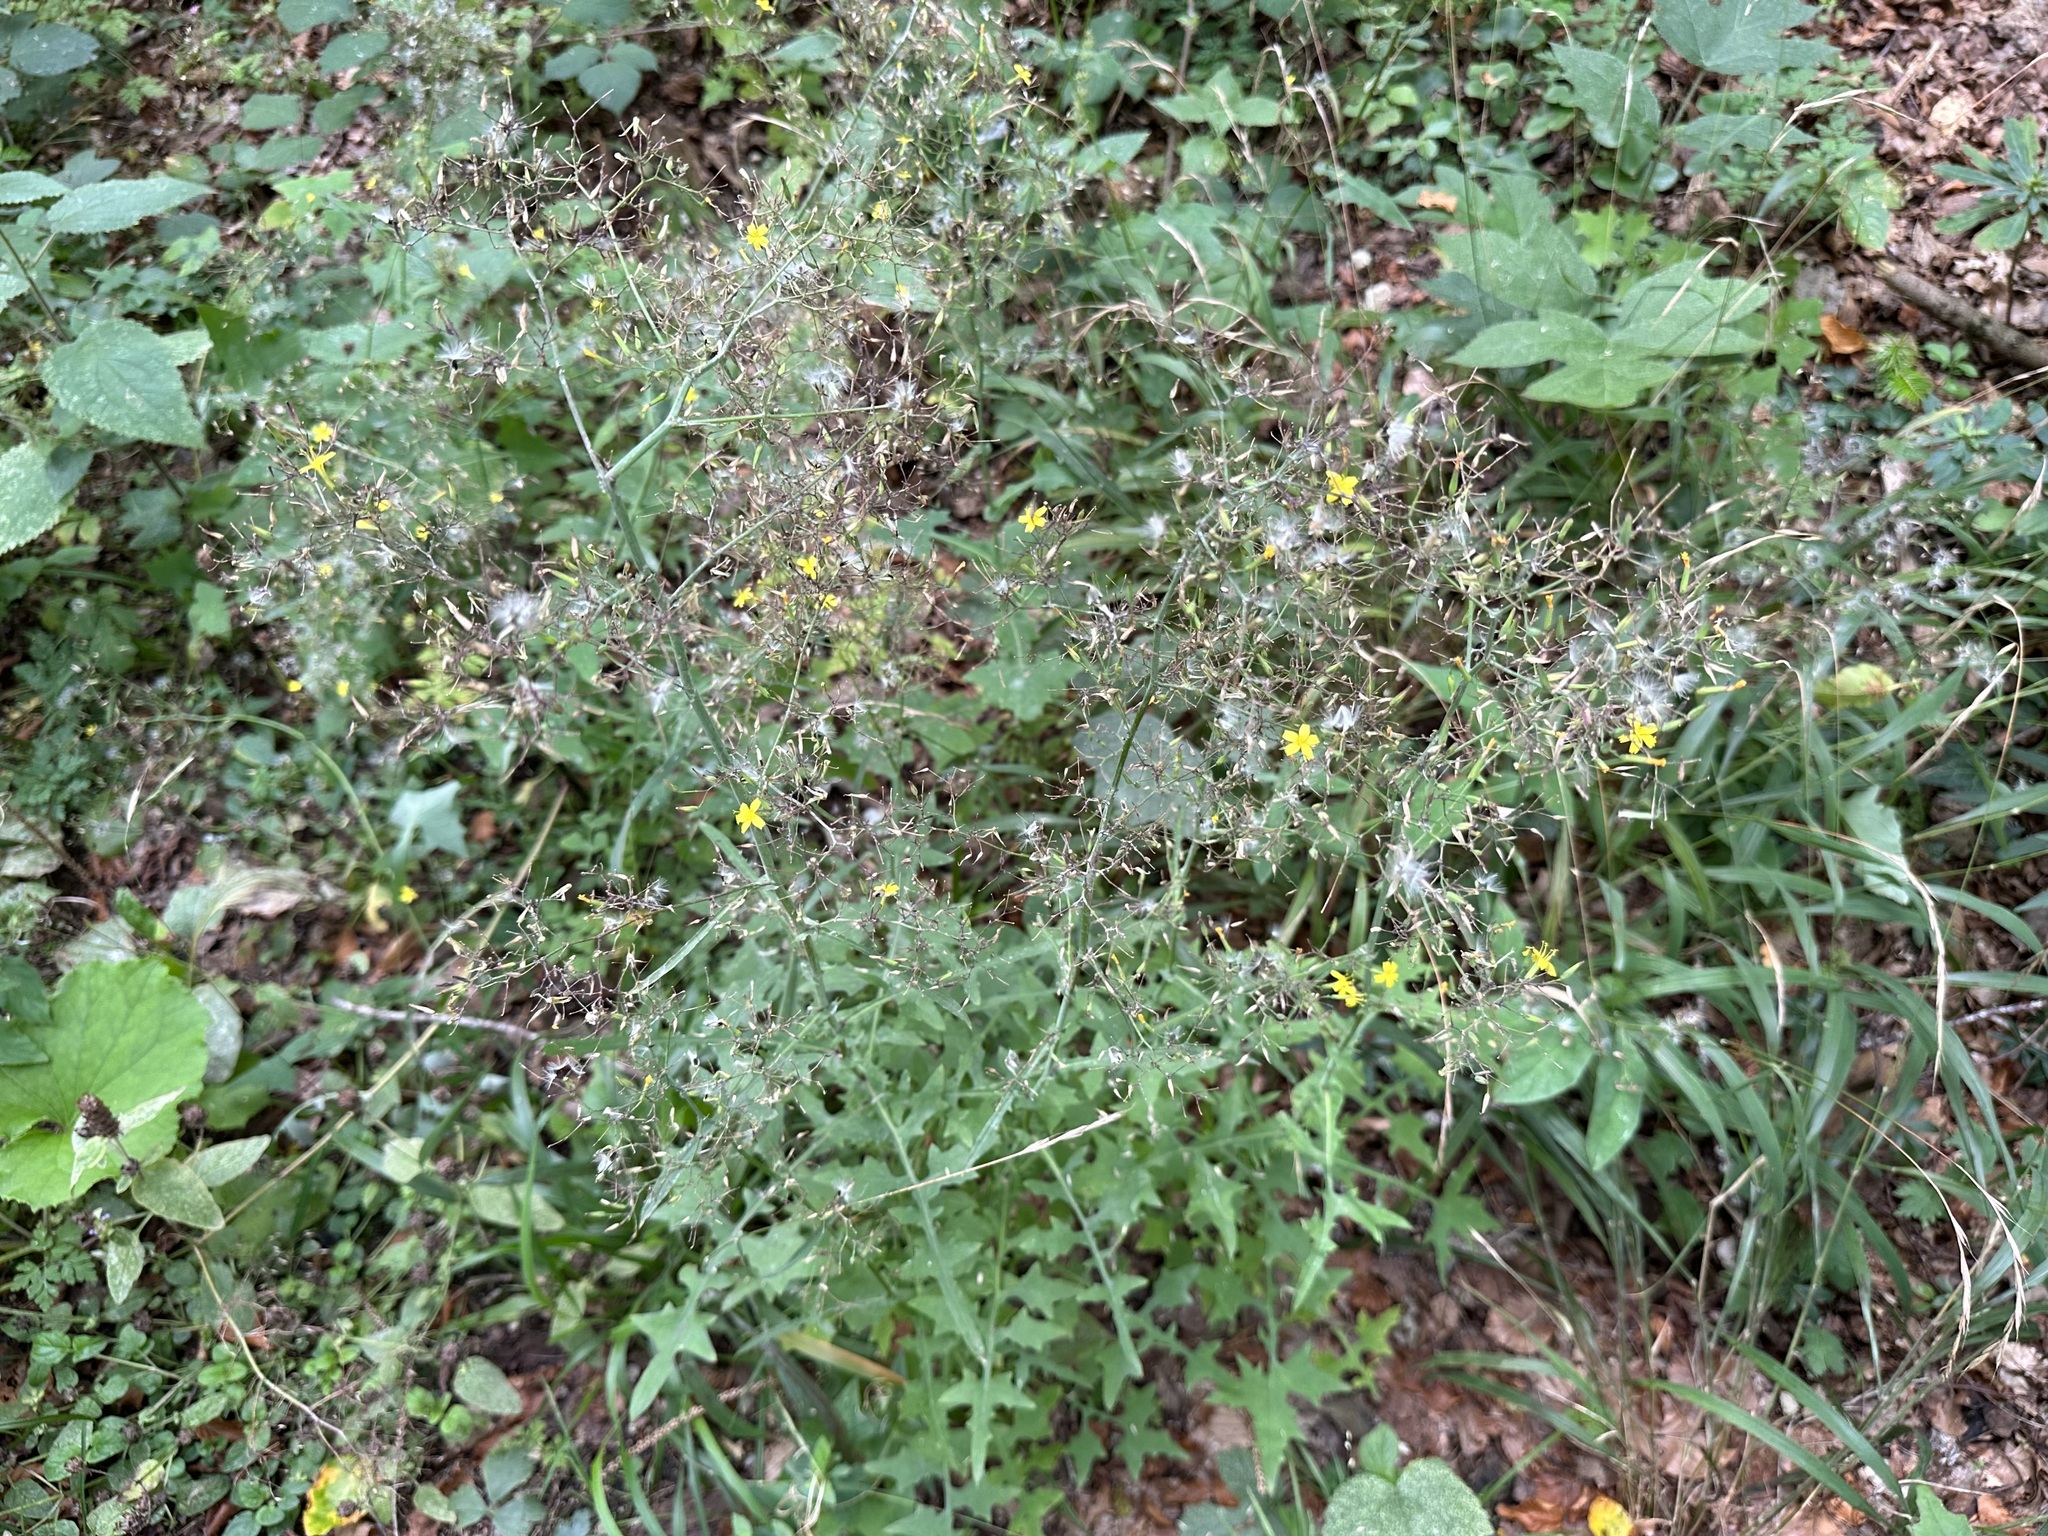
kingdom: Plantae
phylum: Tracheophyta
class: Magnoliopsida
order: Asterales
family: Asteraceae
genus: Mycelis
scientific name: Mycelis muralis
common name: Wall lettuce
